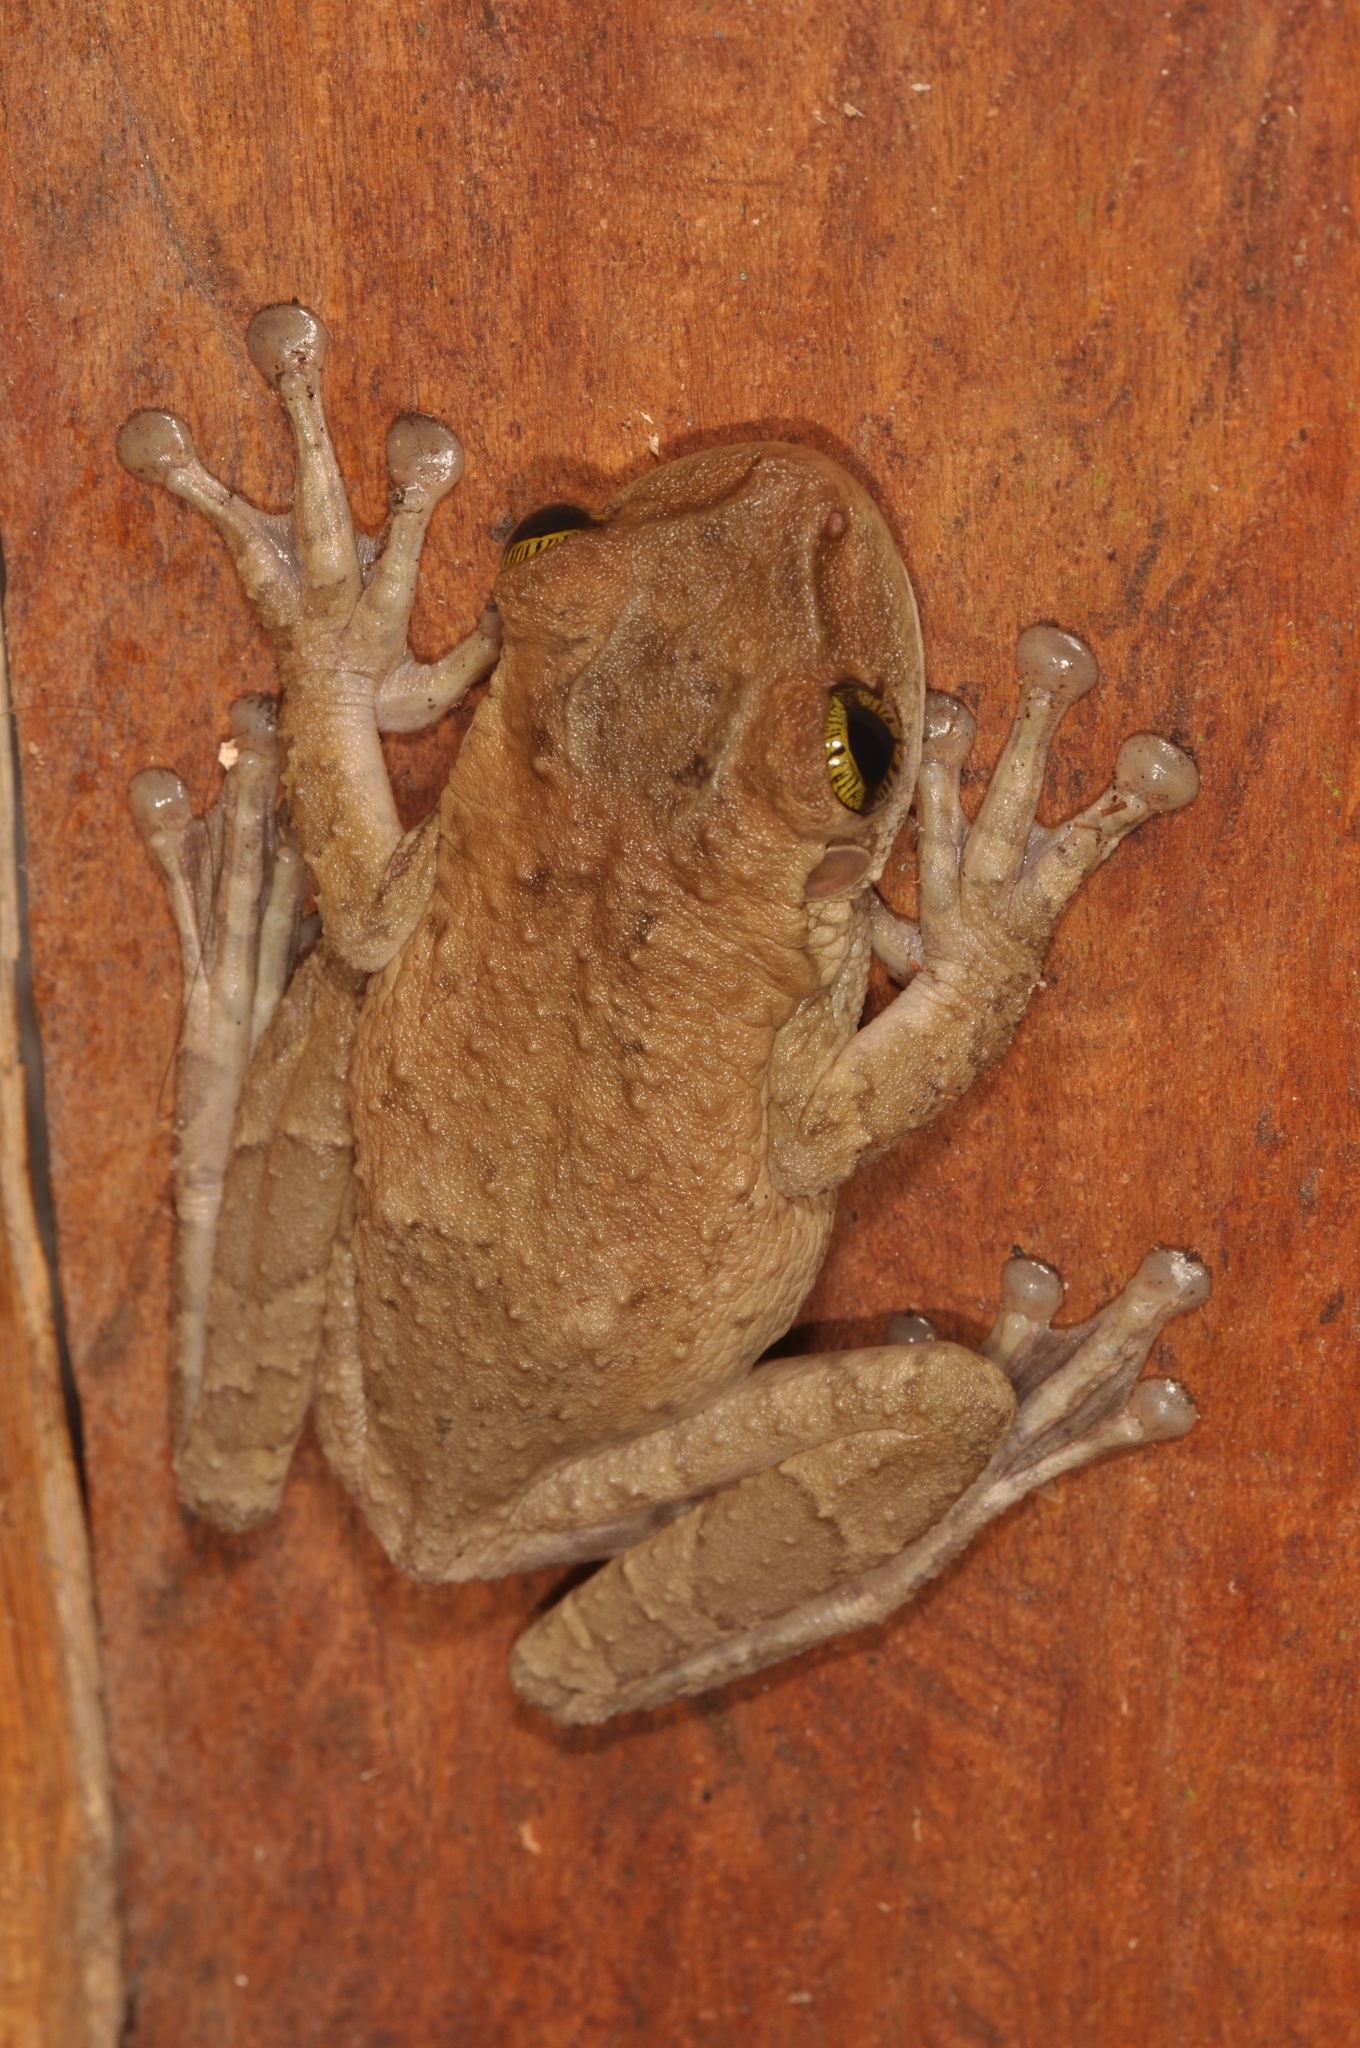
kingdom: Animalia
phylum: Chordata
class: Amphibia
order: Anura
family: Hylidae
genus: Osteocephalus
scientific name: Osteocephalus taurinus
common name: Manaus slender-legged treefrog
